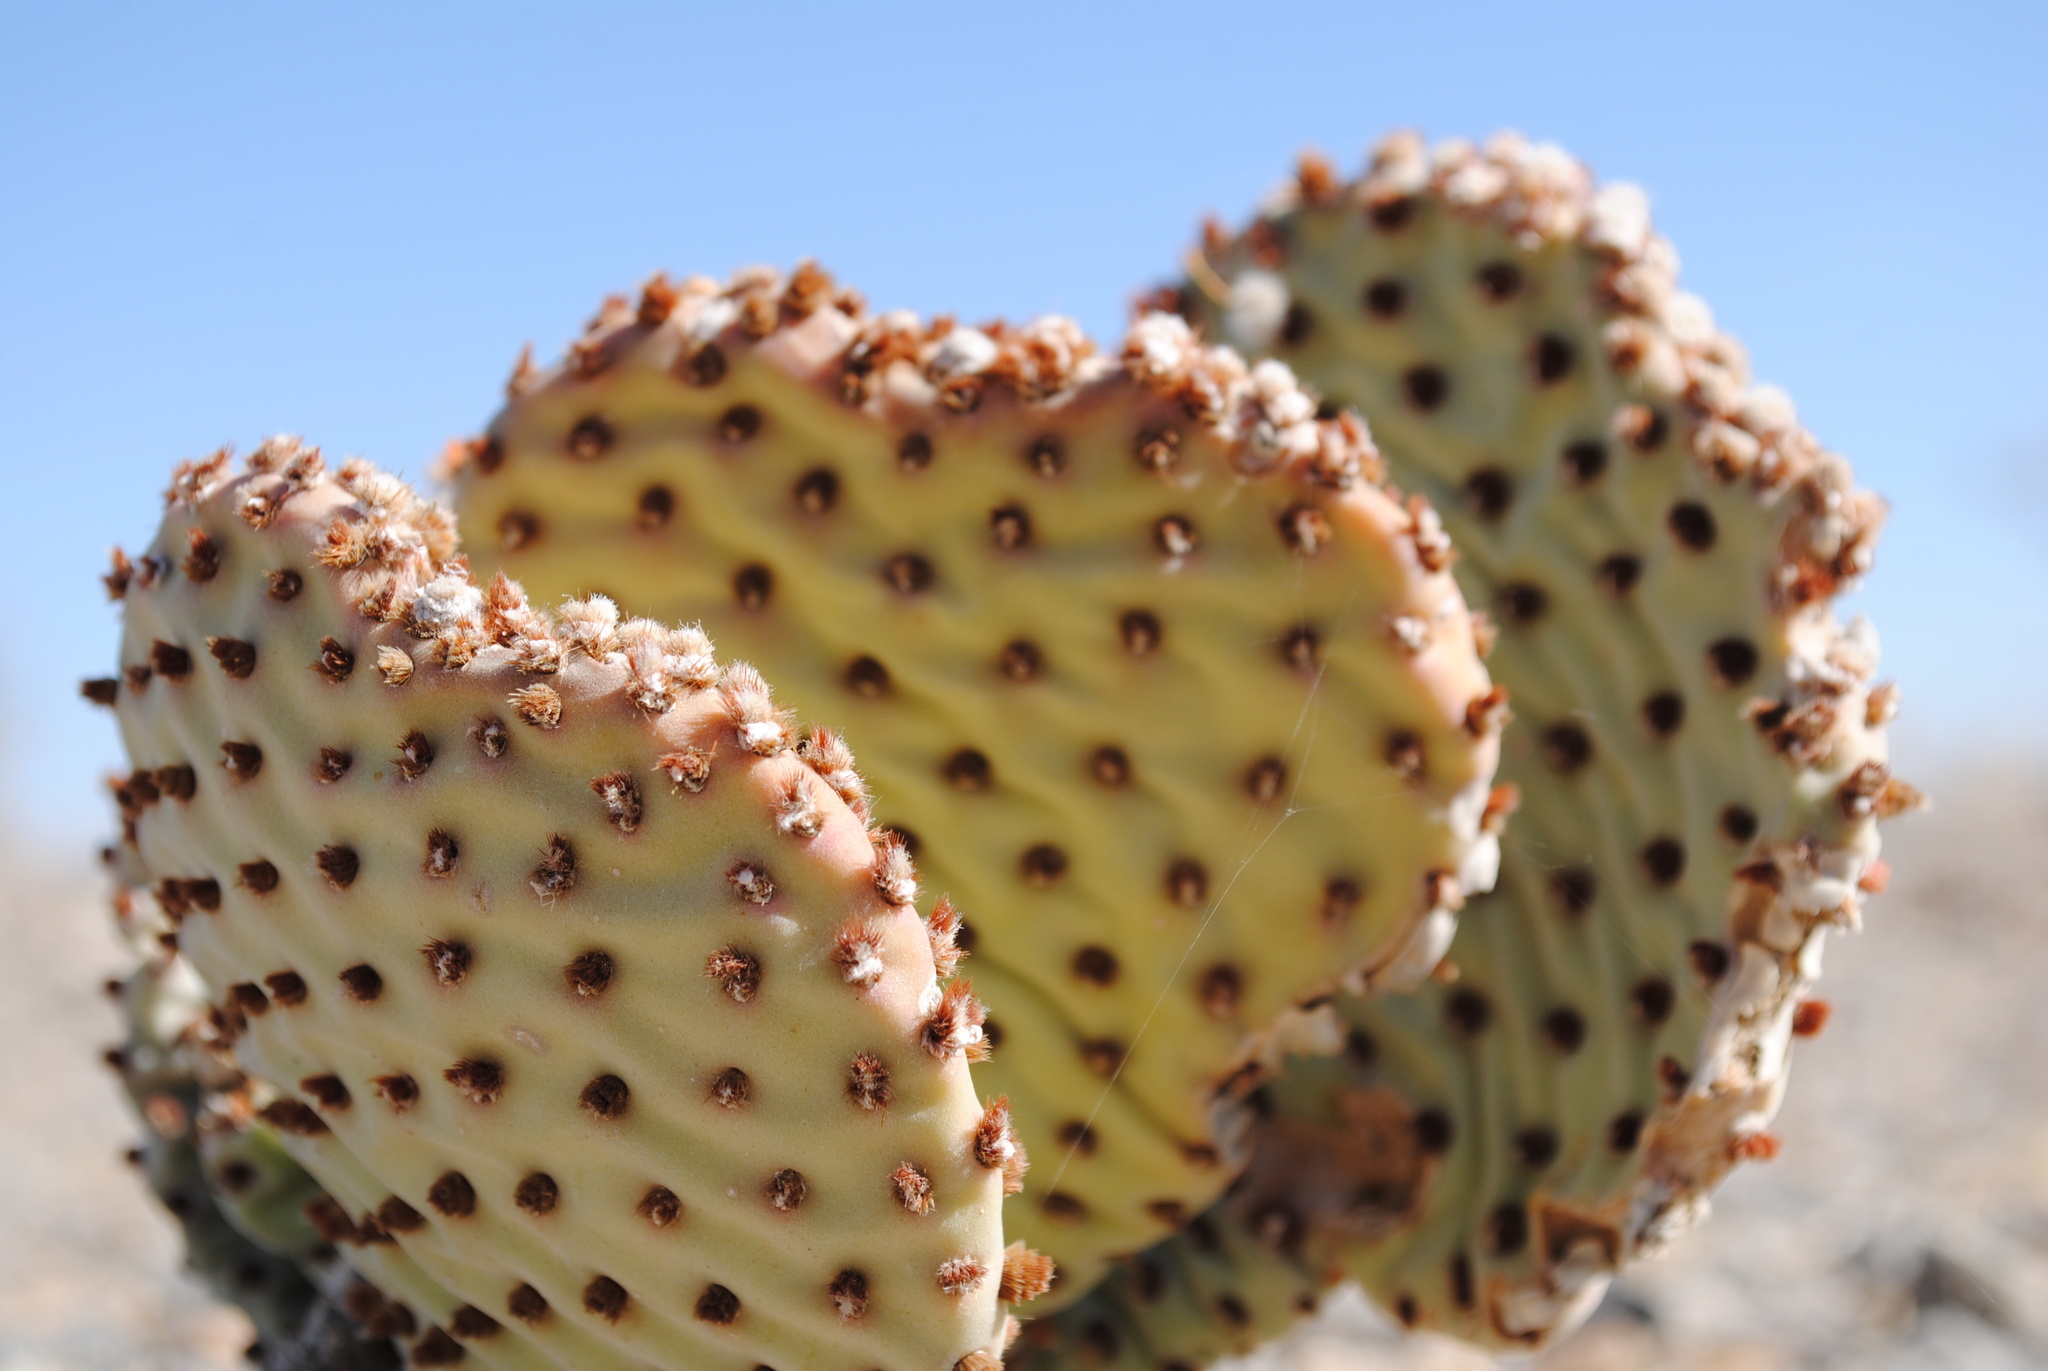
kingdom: Plantae
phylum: Tracheophyta
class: Magnoliopsida
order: Caryophyllales
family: Cactaceae
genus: Opuntia
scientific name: Opuntia basilaris
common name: Beavertail prickly-pear
